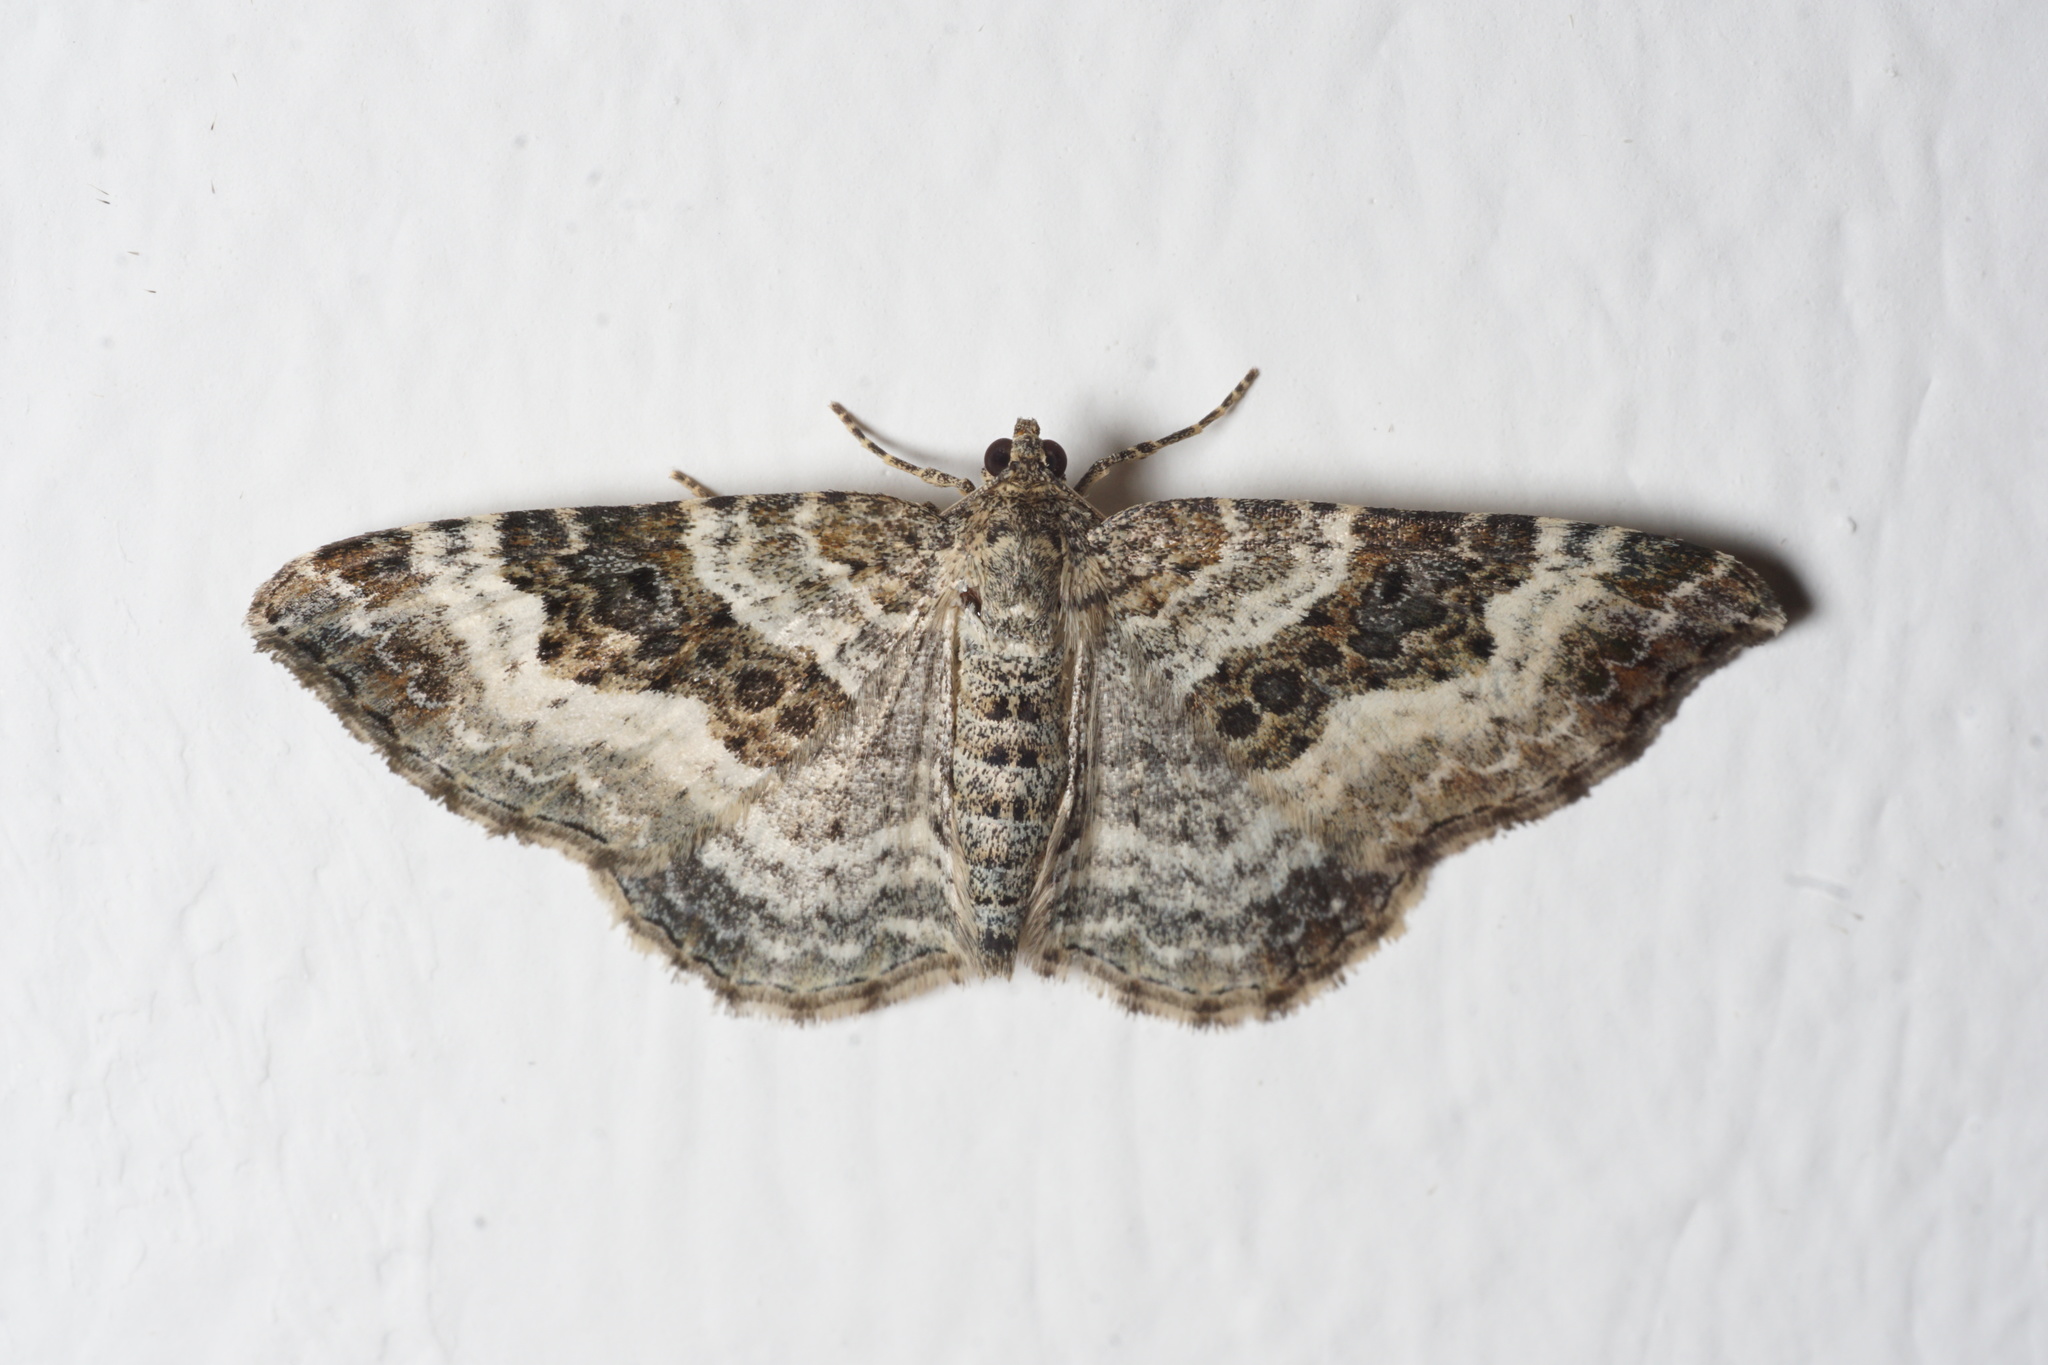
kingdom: Animalia
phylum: Arthropoda
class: Insecta
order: Lepidoptera
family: Geometridae
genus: Epirrhoe
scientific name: Epirrhoe alternata
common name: Common carpet
